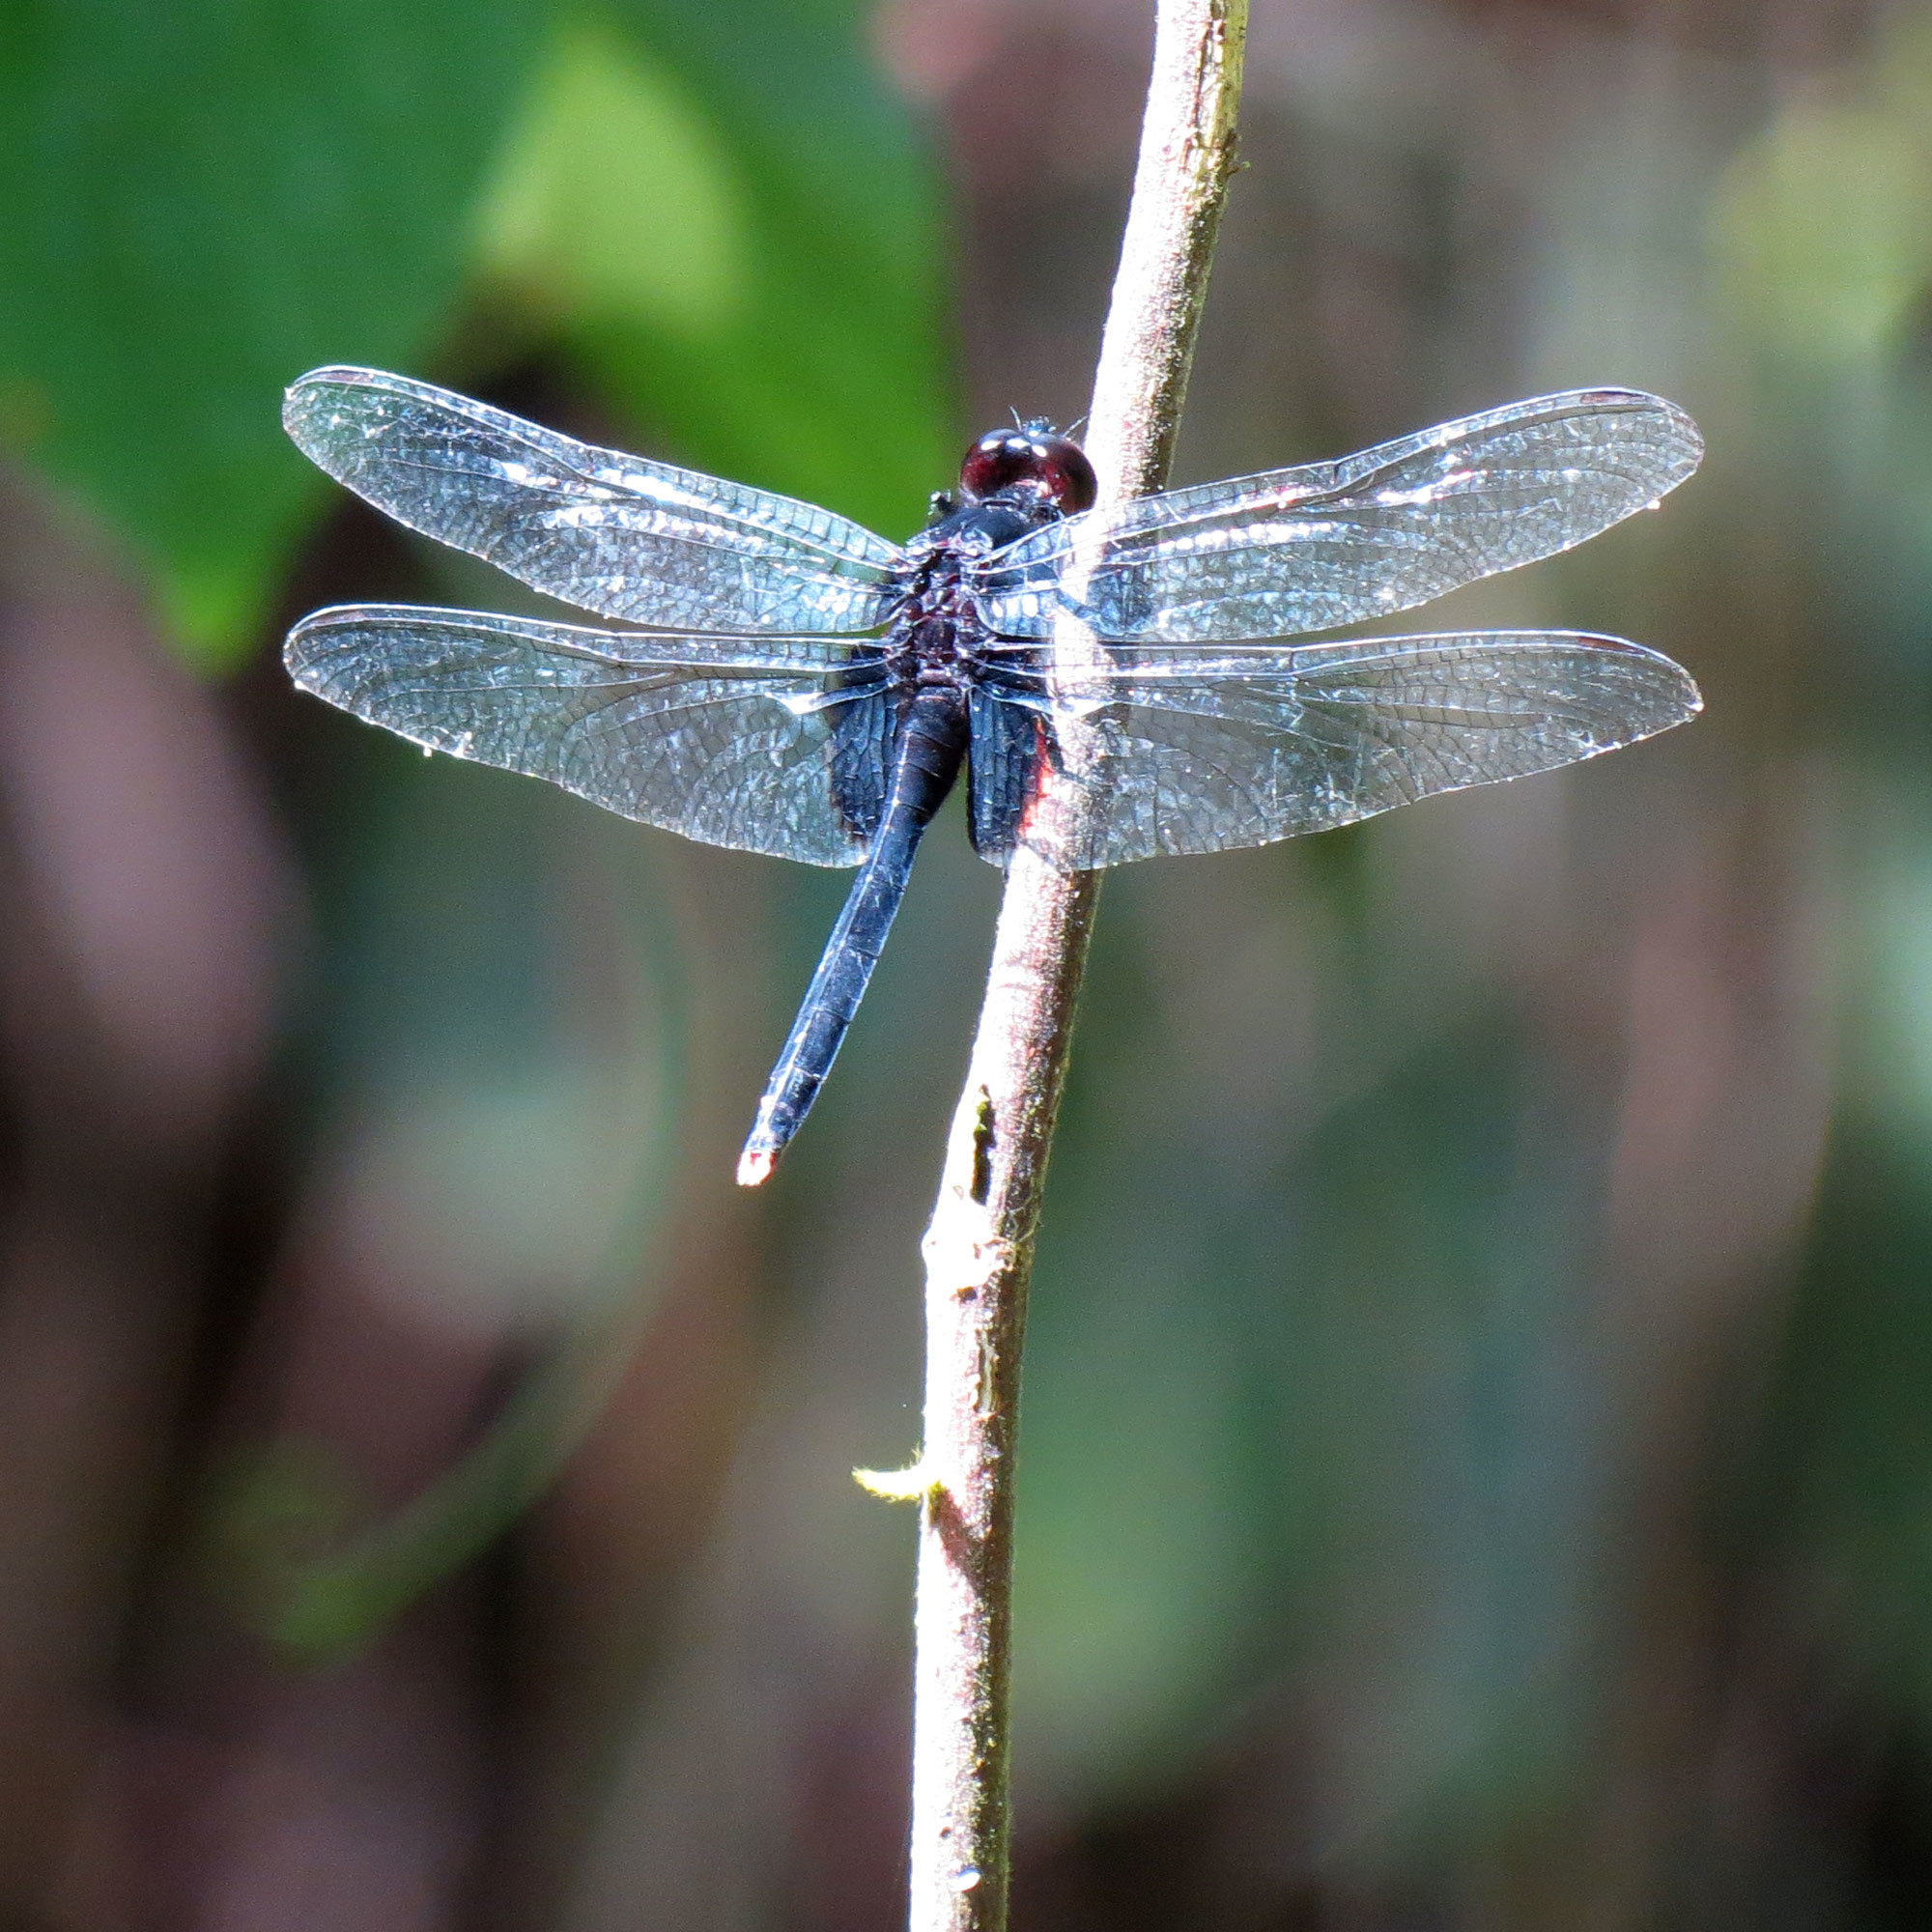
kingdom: Animalia
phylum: Arthropoda
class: Insecta
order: Odonata
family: Libellulidae
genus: Erythemis
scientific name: Erythemis attala
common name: Black pondhawk
